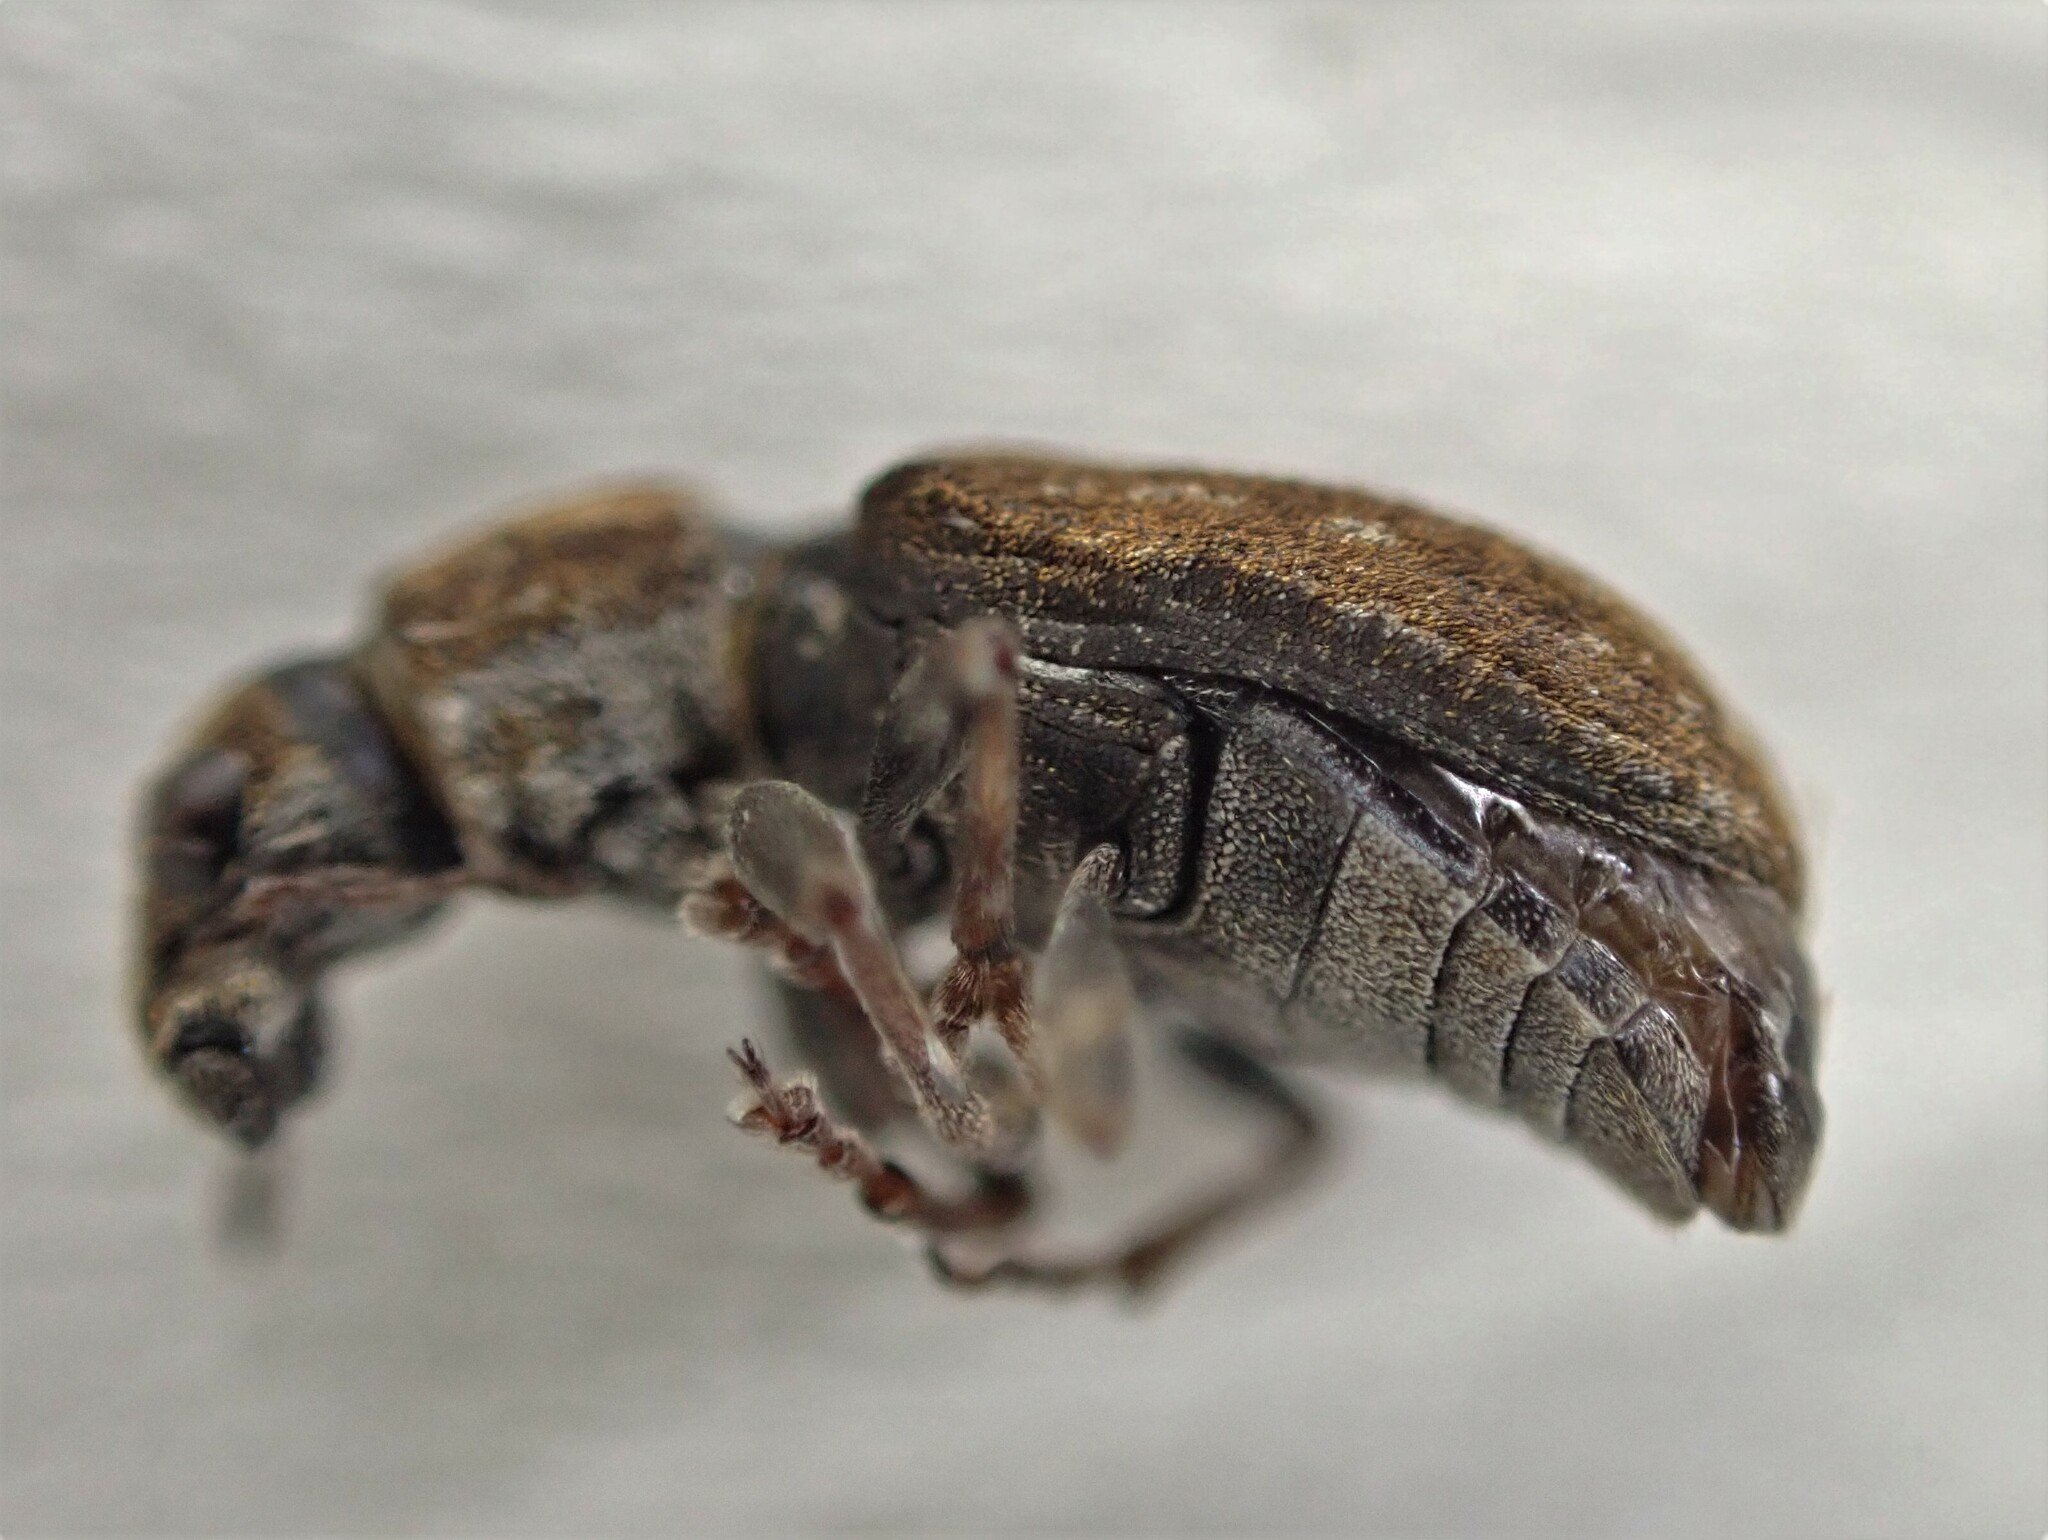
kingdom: Animalia
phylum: Arthropoda
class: Insecta
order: Coleoptera
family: Curculionidae
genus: Sitona
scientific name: Sitona obsoletus
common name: Weevil
